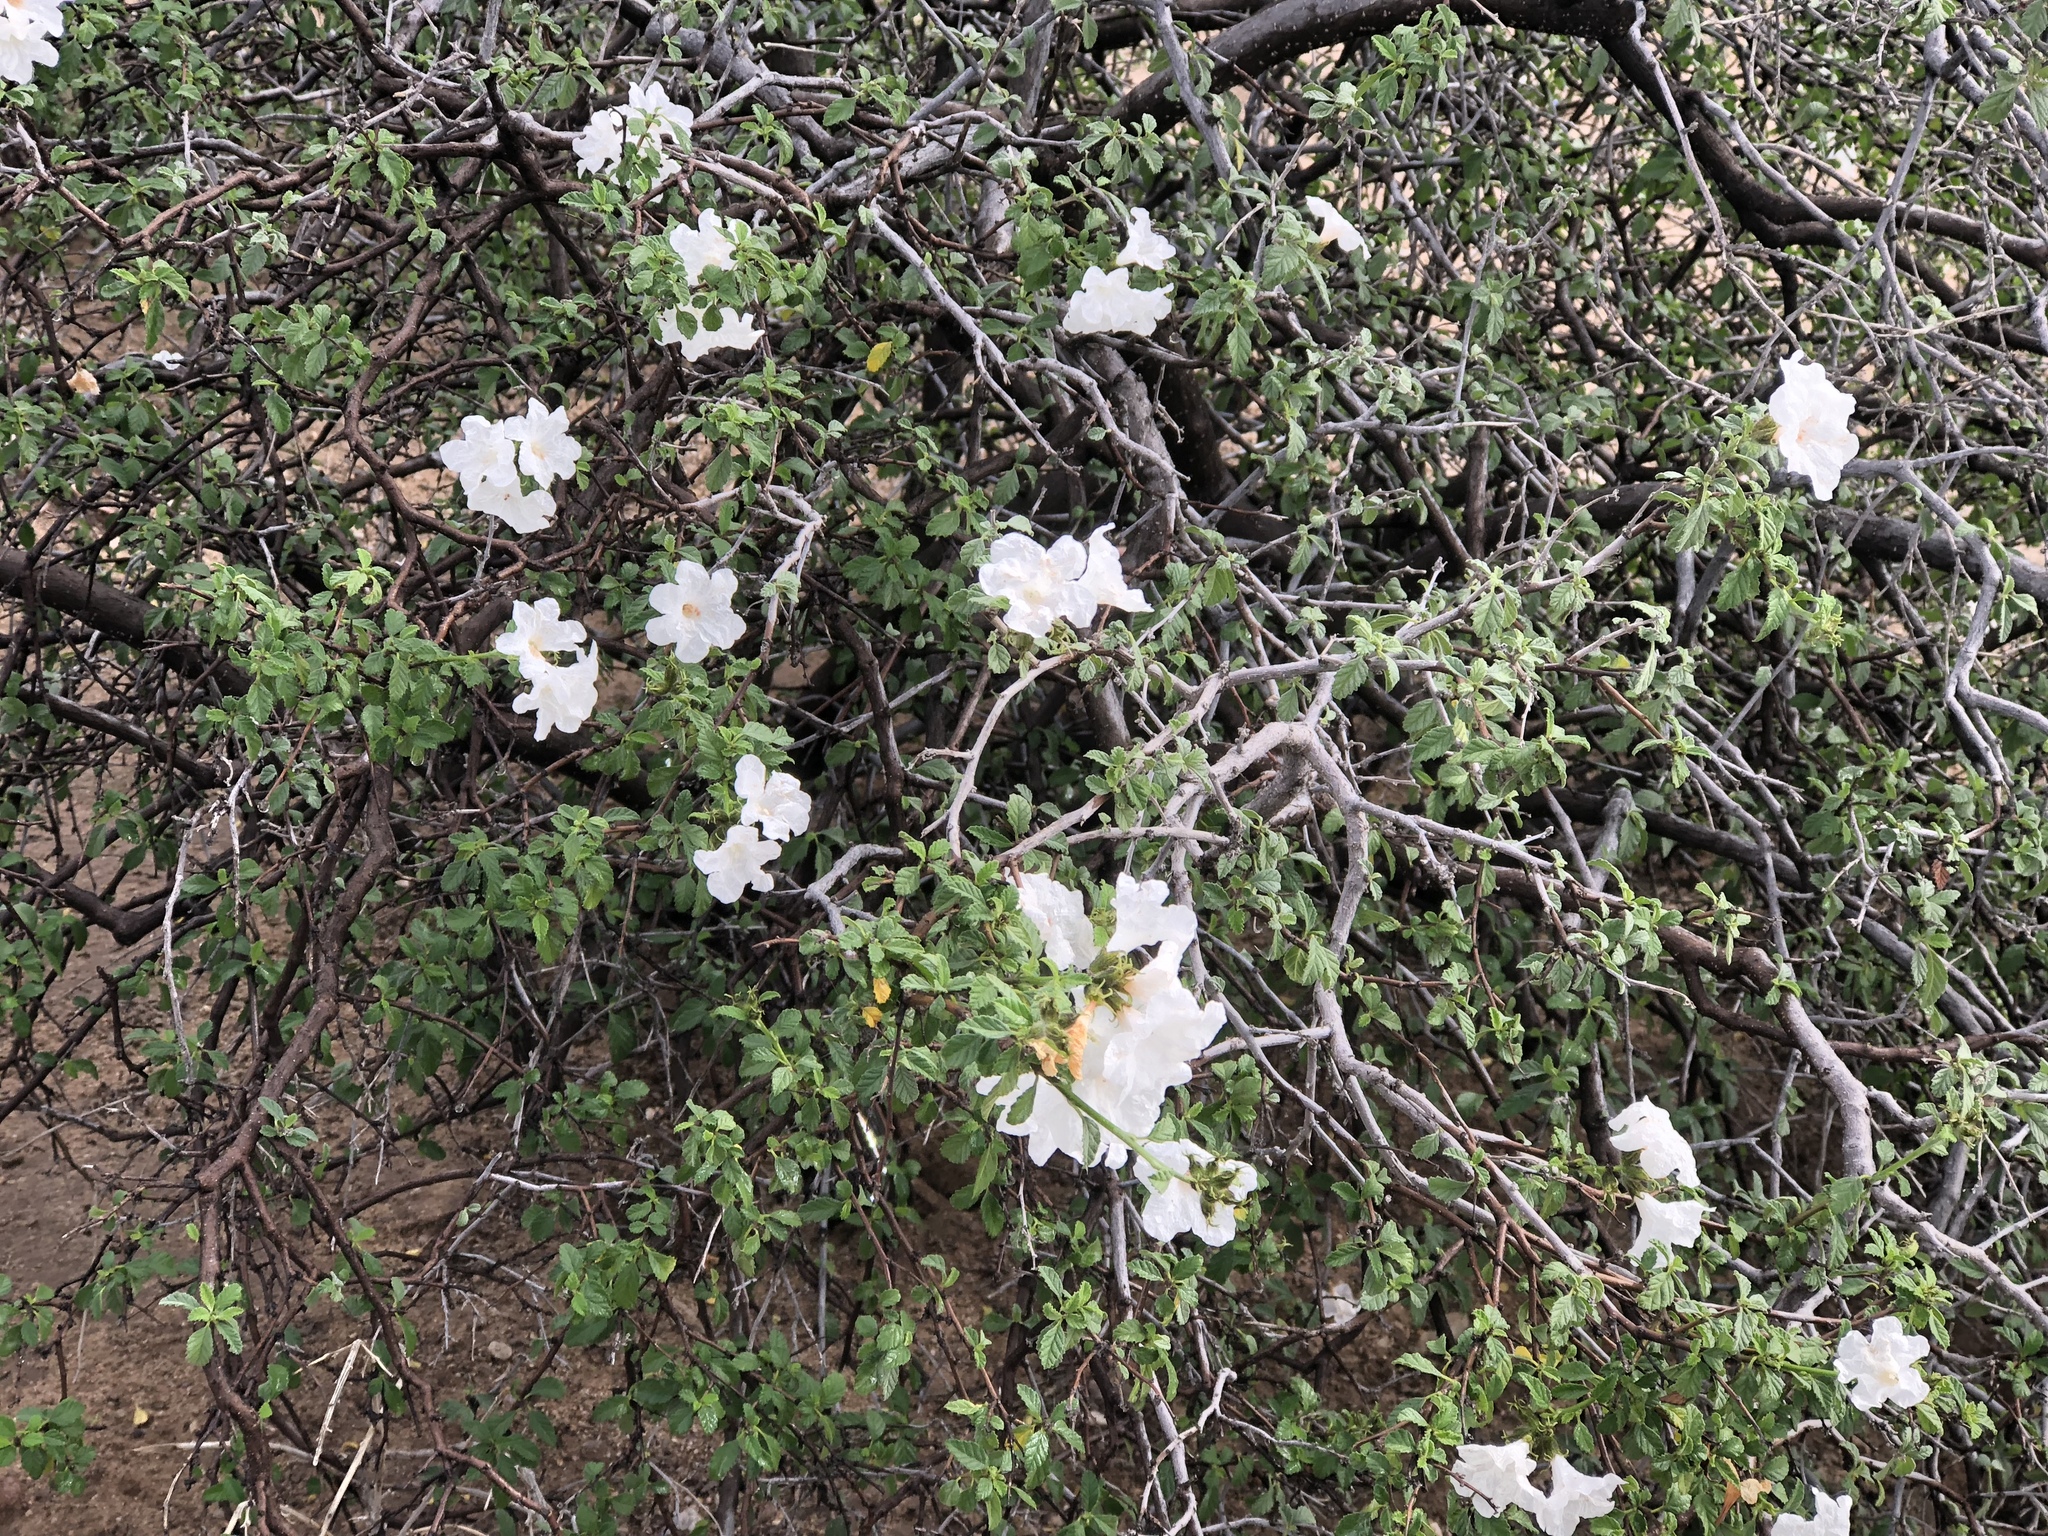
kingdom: Plantae
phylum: Tracheophyta
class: Magnoliopsida
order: Boraginales
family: Cordiaceae
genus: Cordia
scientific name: Cordia parvifolia
